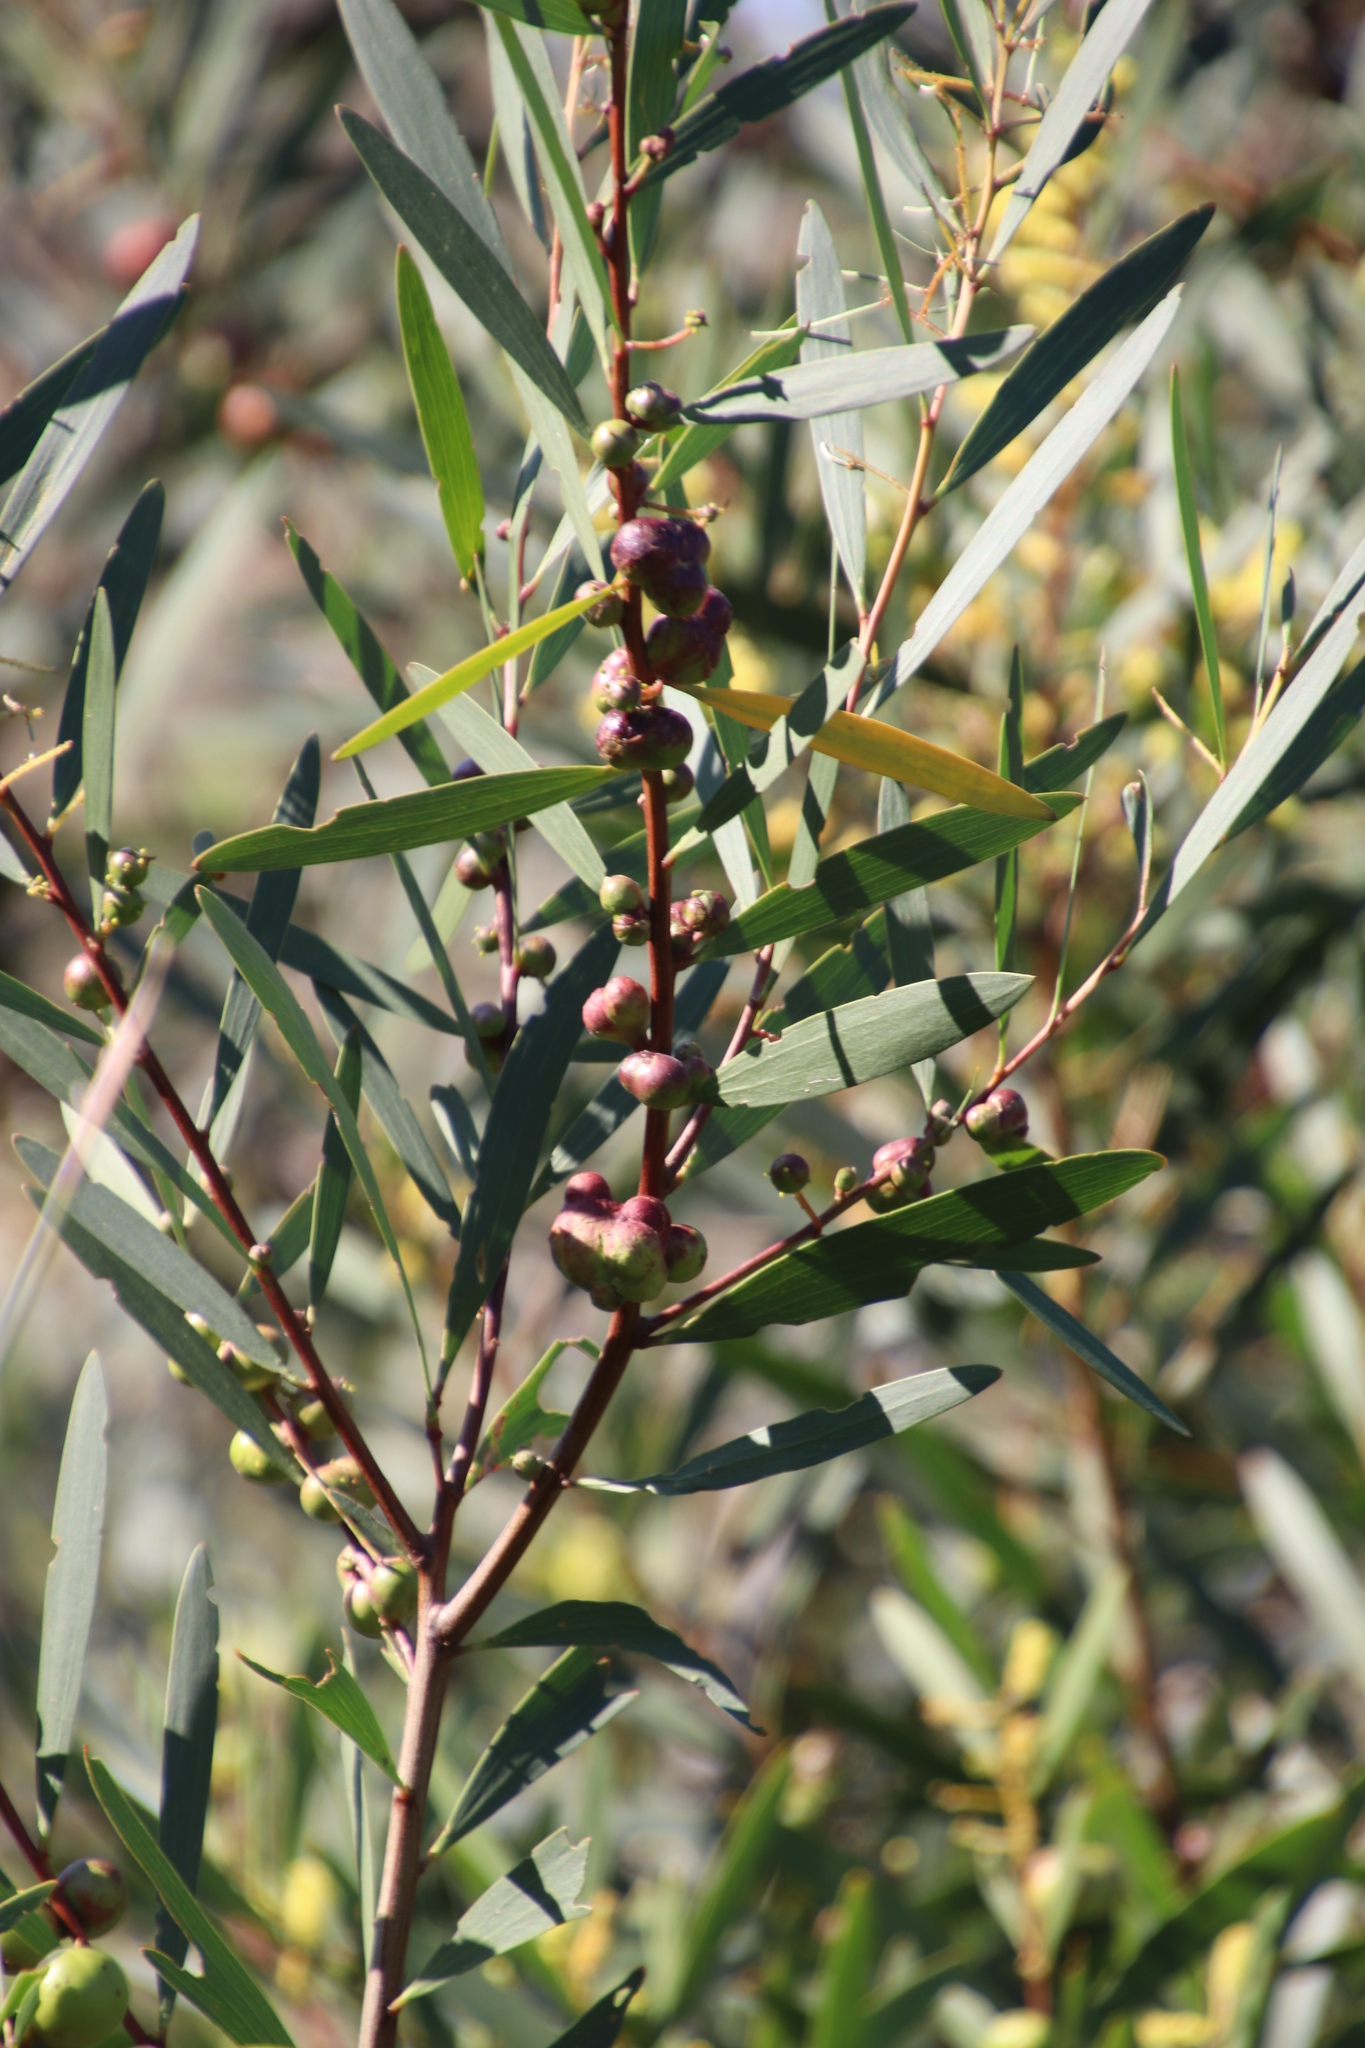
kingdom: Plantae
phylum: Tracheophyta
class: Magnoliopsida
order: Fabales
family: Fabaceae
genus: Acacia
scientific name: Acacia longifolia
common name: Sydney golden wattle
